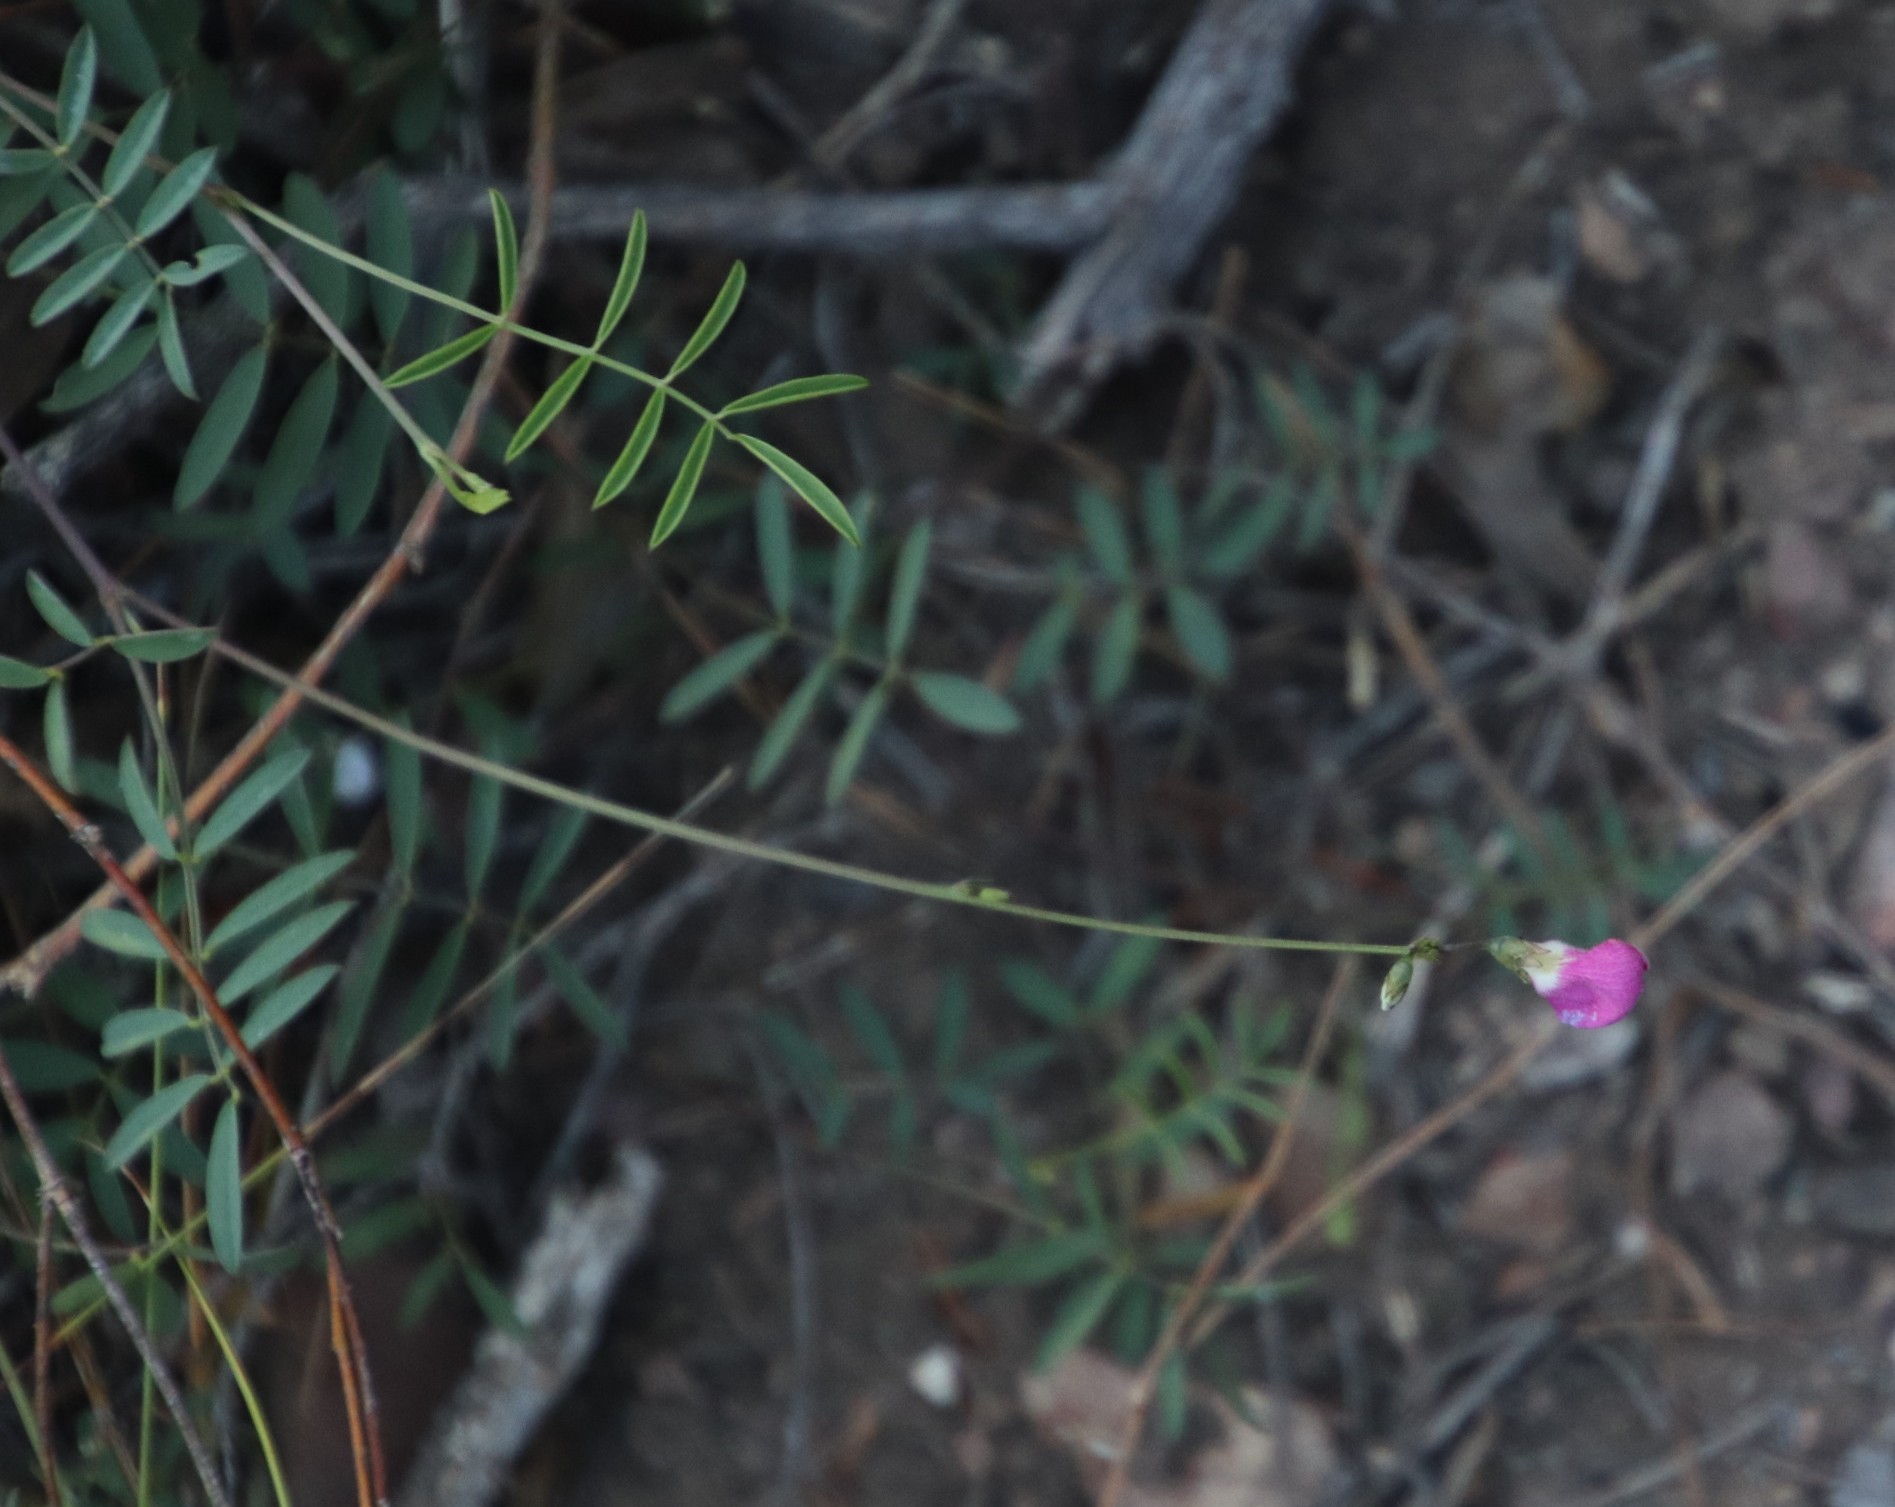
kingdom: Plantae
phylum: Tracheophyta
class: Magnoliopsida
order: Fabales
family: Fabaceae
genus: Tephrosia
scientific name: Tephrosia capensis
